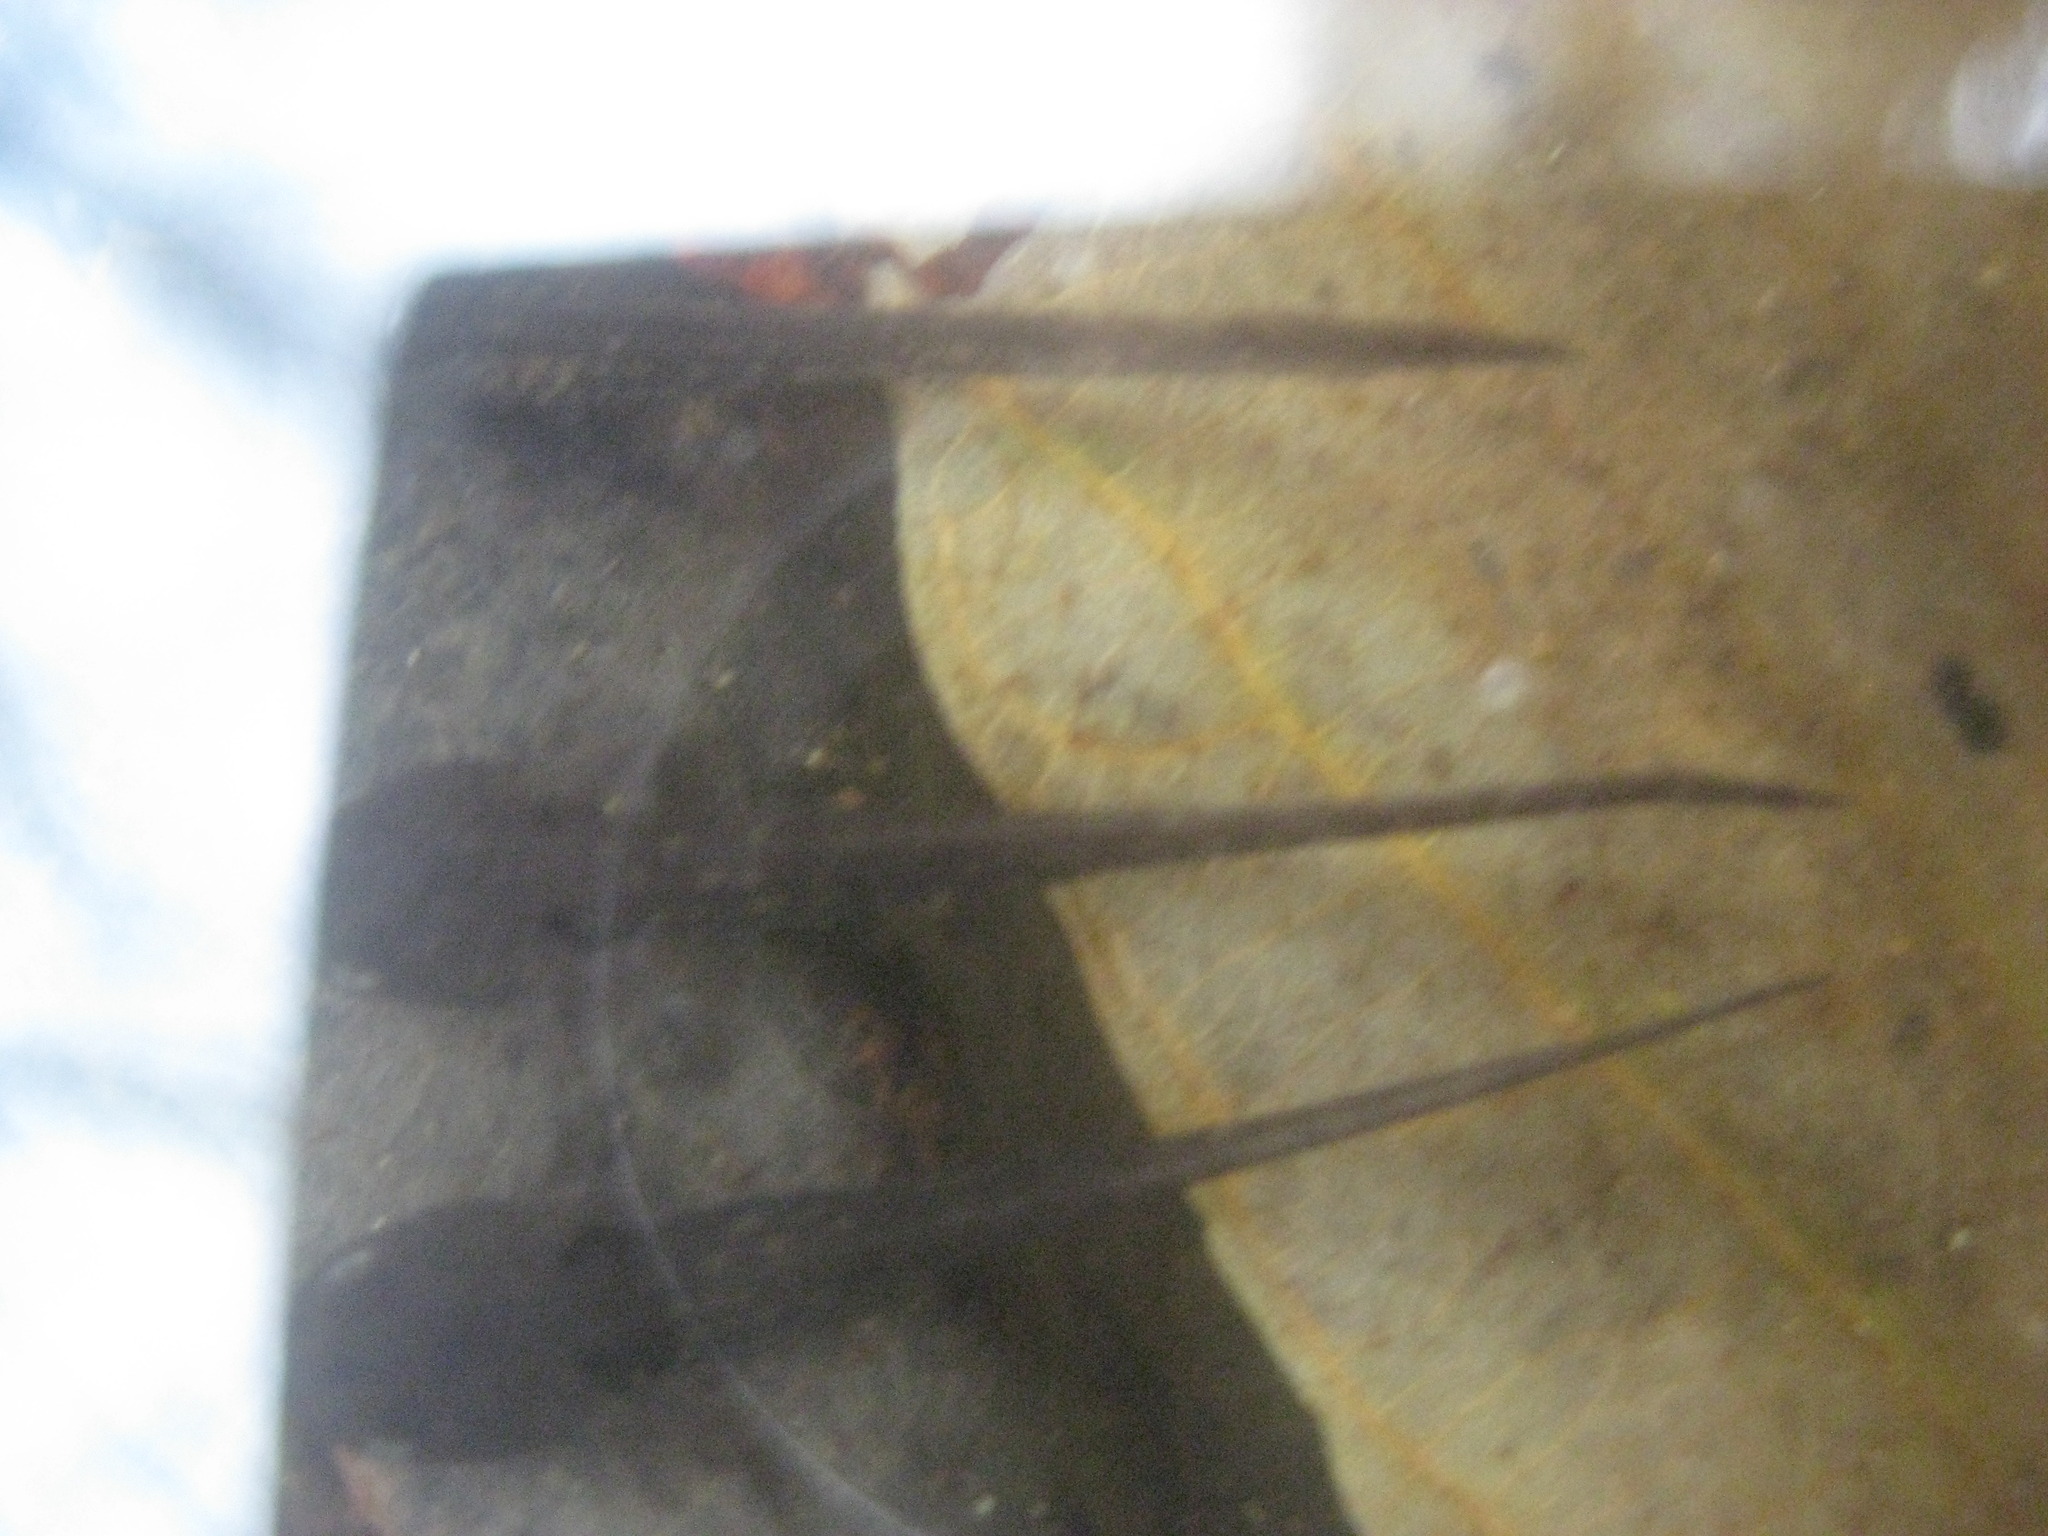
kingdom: Animalia
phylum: Chordata
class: Amphibia
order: Caudata
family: Ambystomatidae
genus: Ambystoma
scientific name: Ambystoma opacum
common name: Marbled salamander
